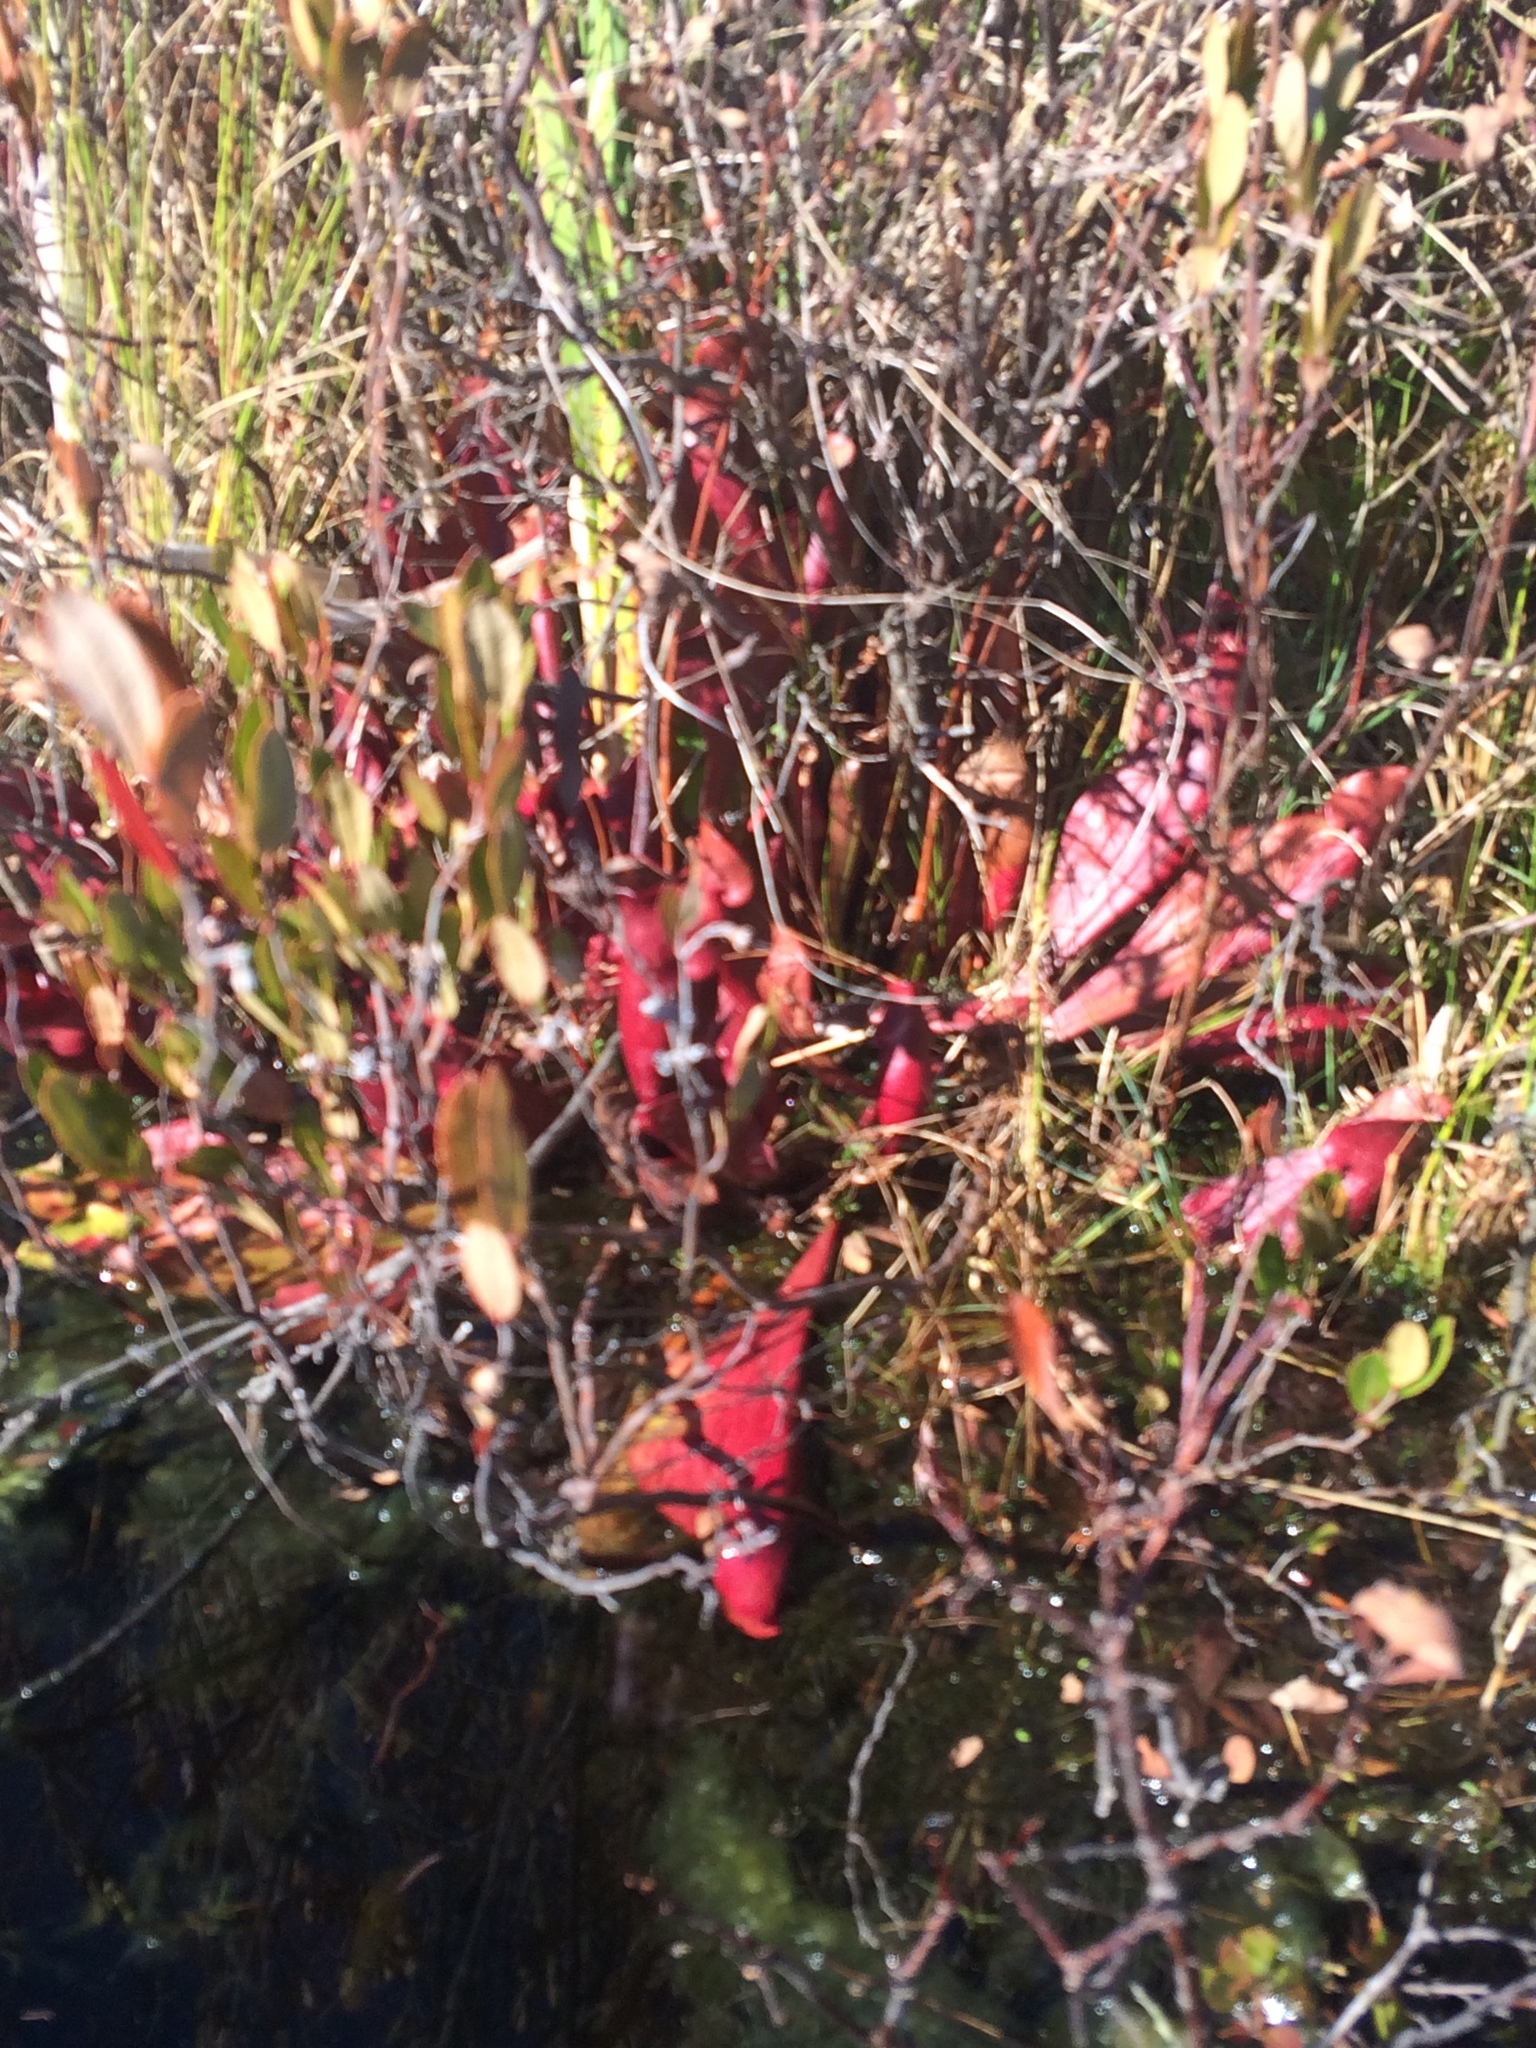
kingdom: Plantae
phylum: Tracheophyta
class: Magnoliopsida
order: Ericales
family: Sarraceniaceae
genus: Sarracenia
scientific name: Sarracenia purpurea
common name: Pitcherplant
